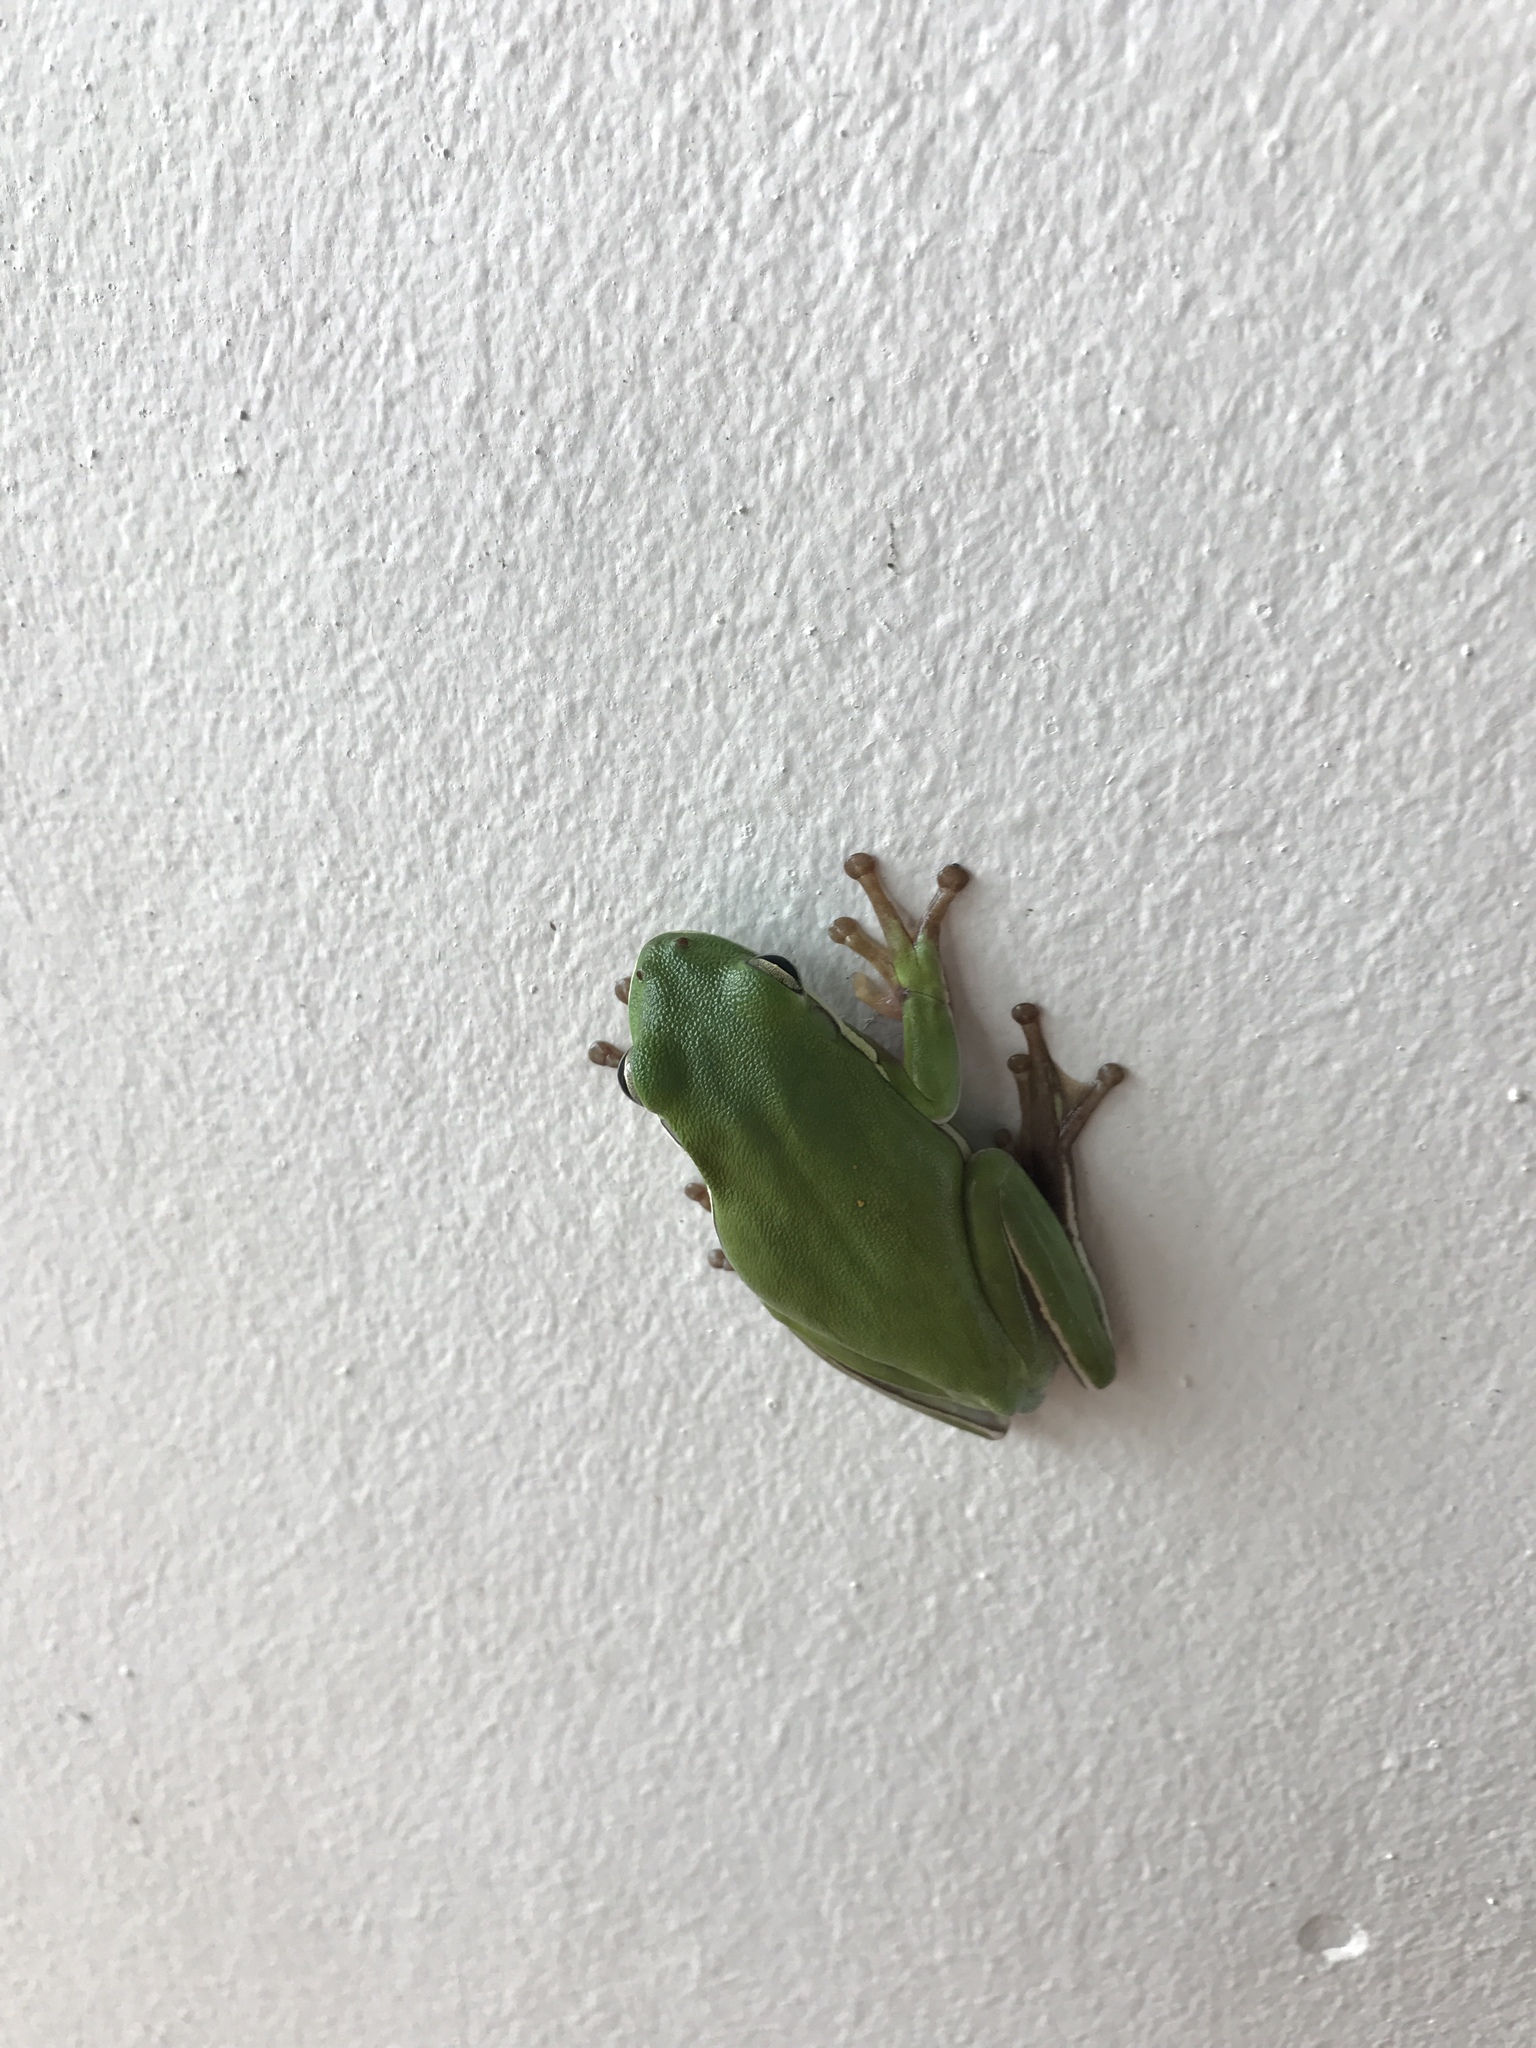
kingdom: Animalia
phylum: Chordata
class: Amphibia
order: Anura
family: Hylidae
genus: Dryophytes
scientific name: Dryophytes cinereus
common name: Green treefrog
